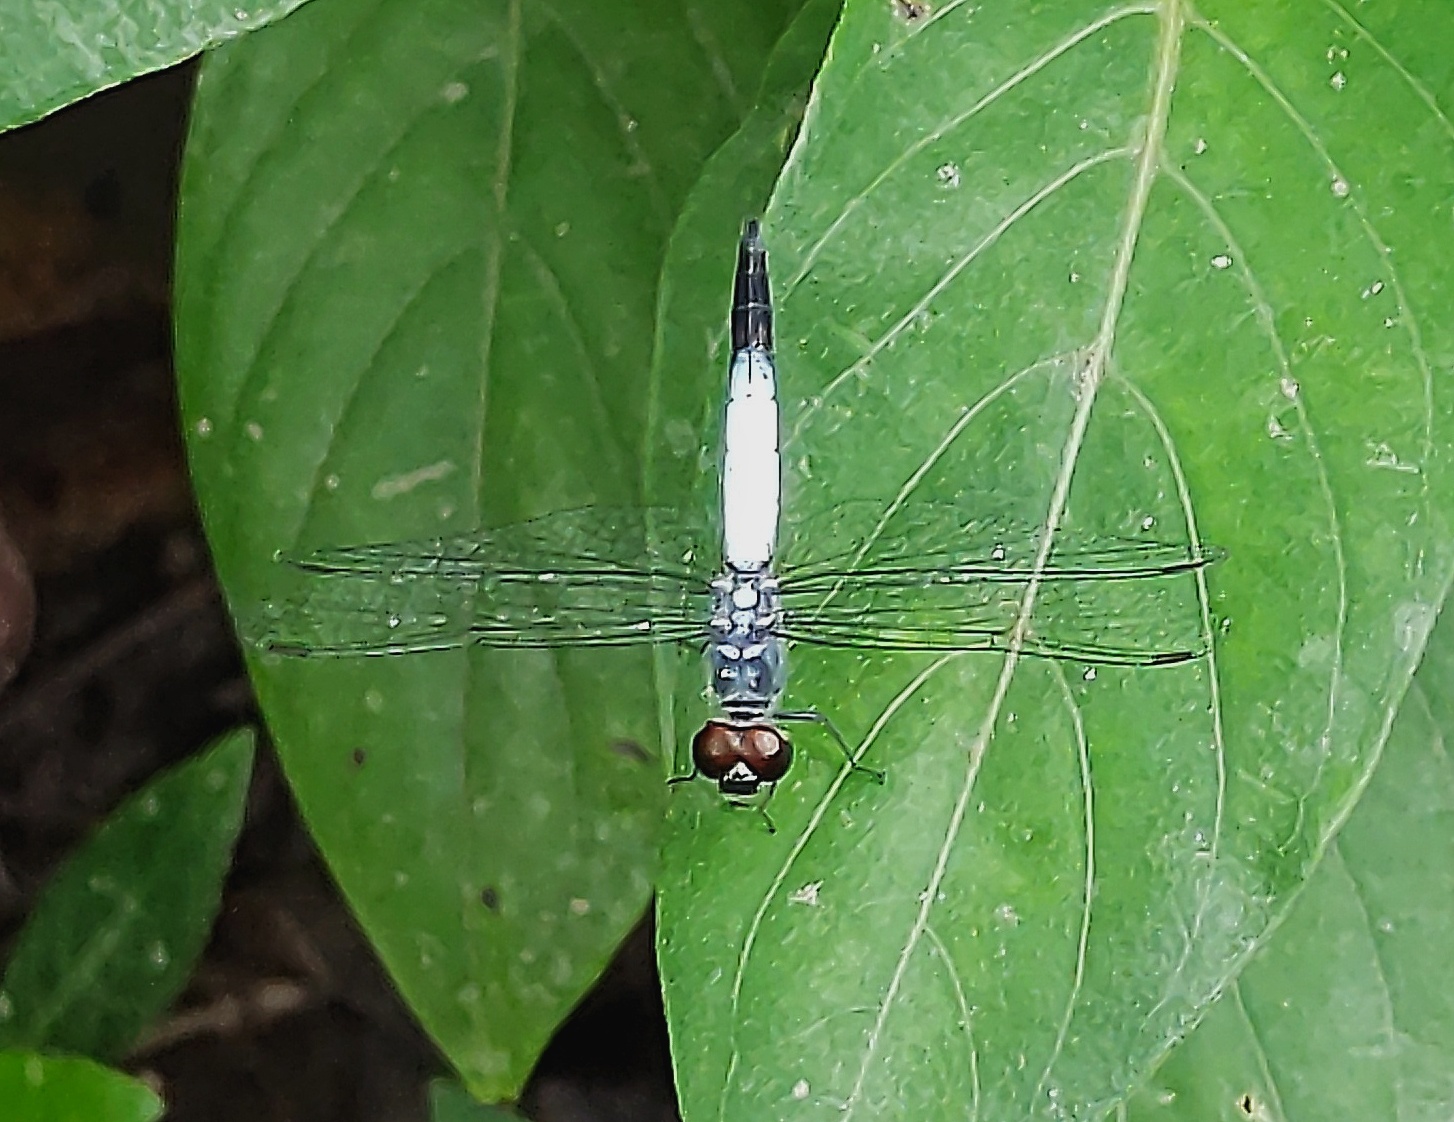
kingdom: Animalia
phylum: Arthropoda
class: Insecta
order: Odonata
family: Libellulidae
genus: Brachydiplax
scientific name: Brachydiplax sobrina
